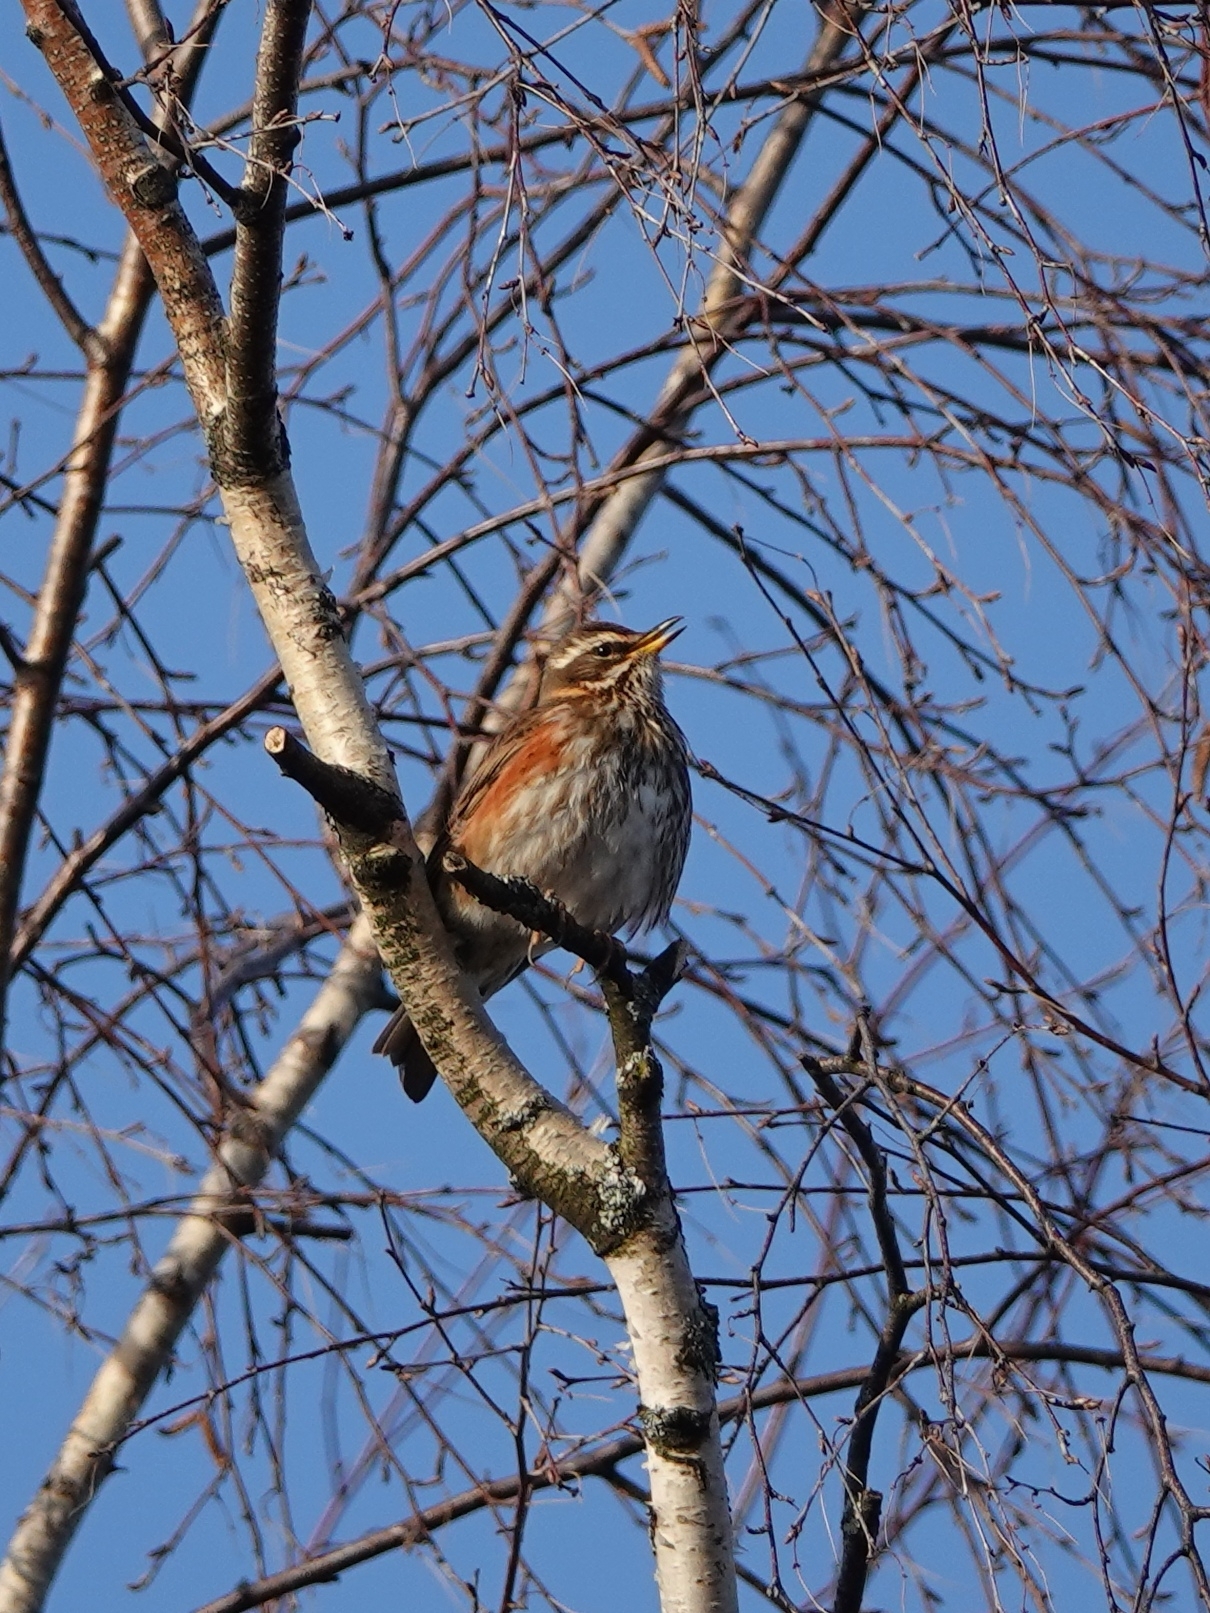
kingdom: Animalia
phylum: Chordata
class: Aves
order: Passeriformes
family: Turdidae
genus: Turdus
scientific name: Turdus iliacus
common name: Redwing
